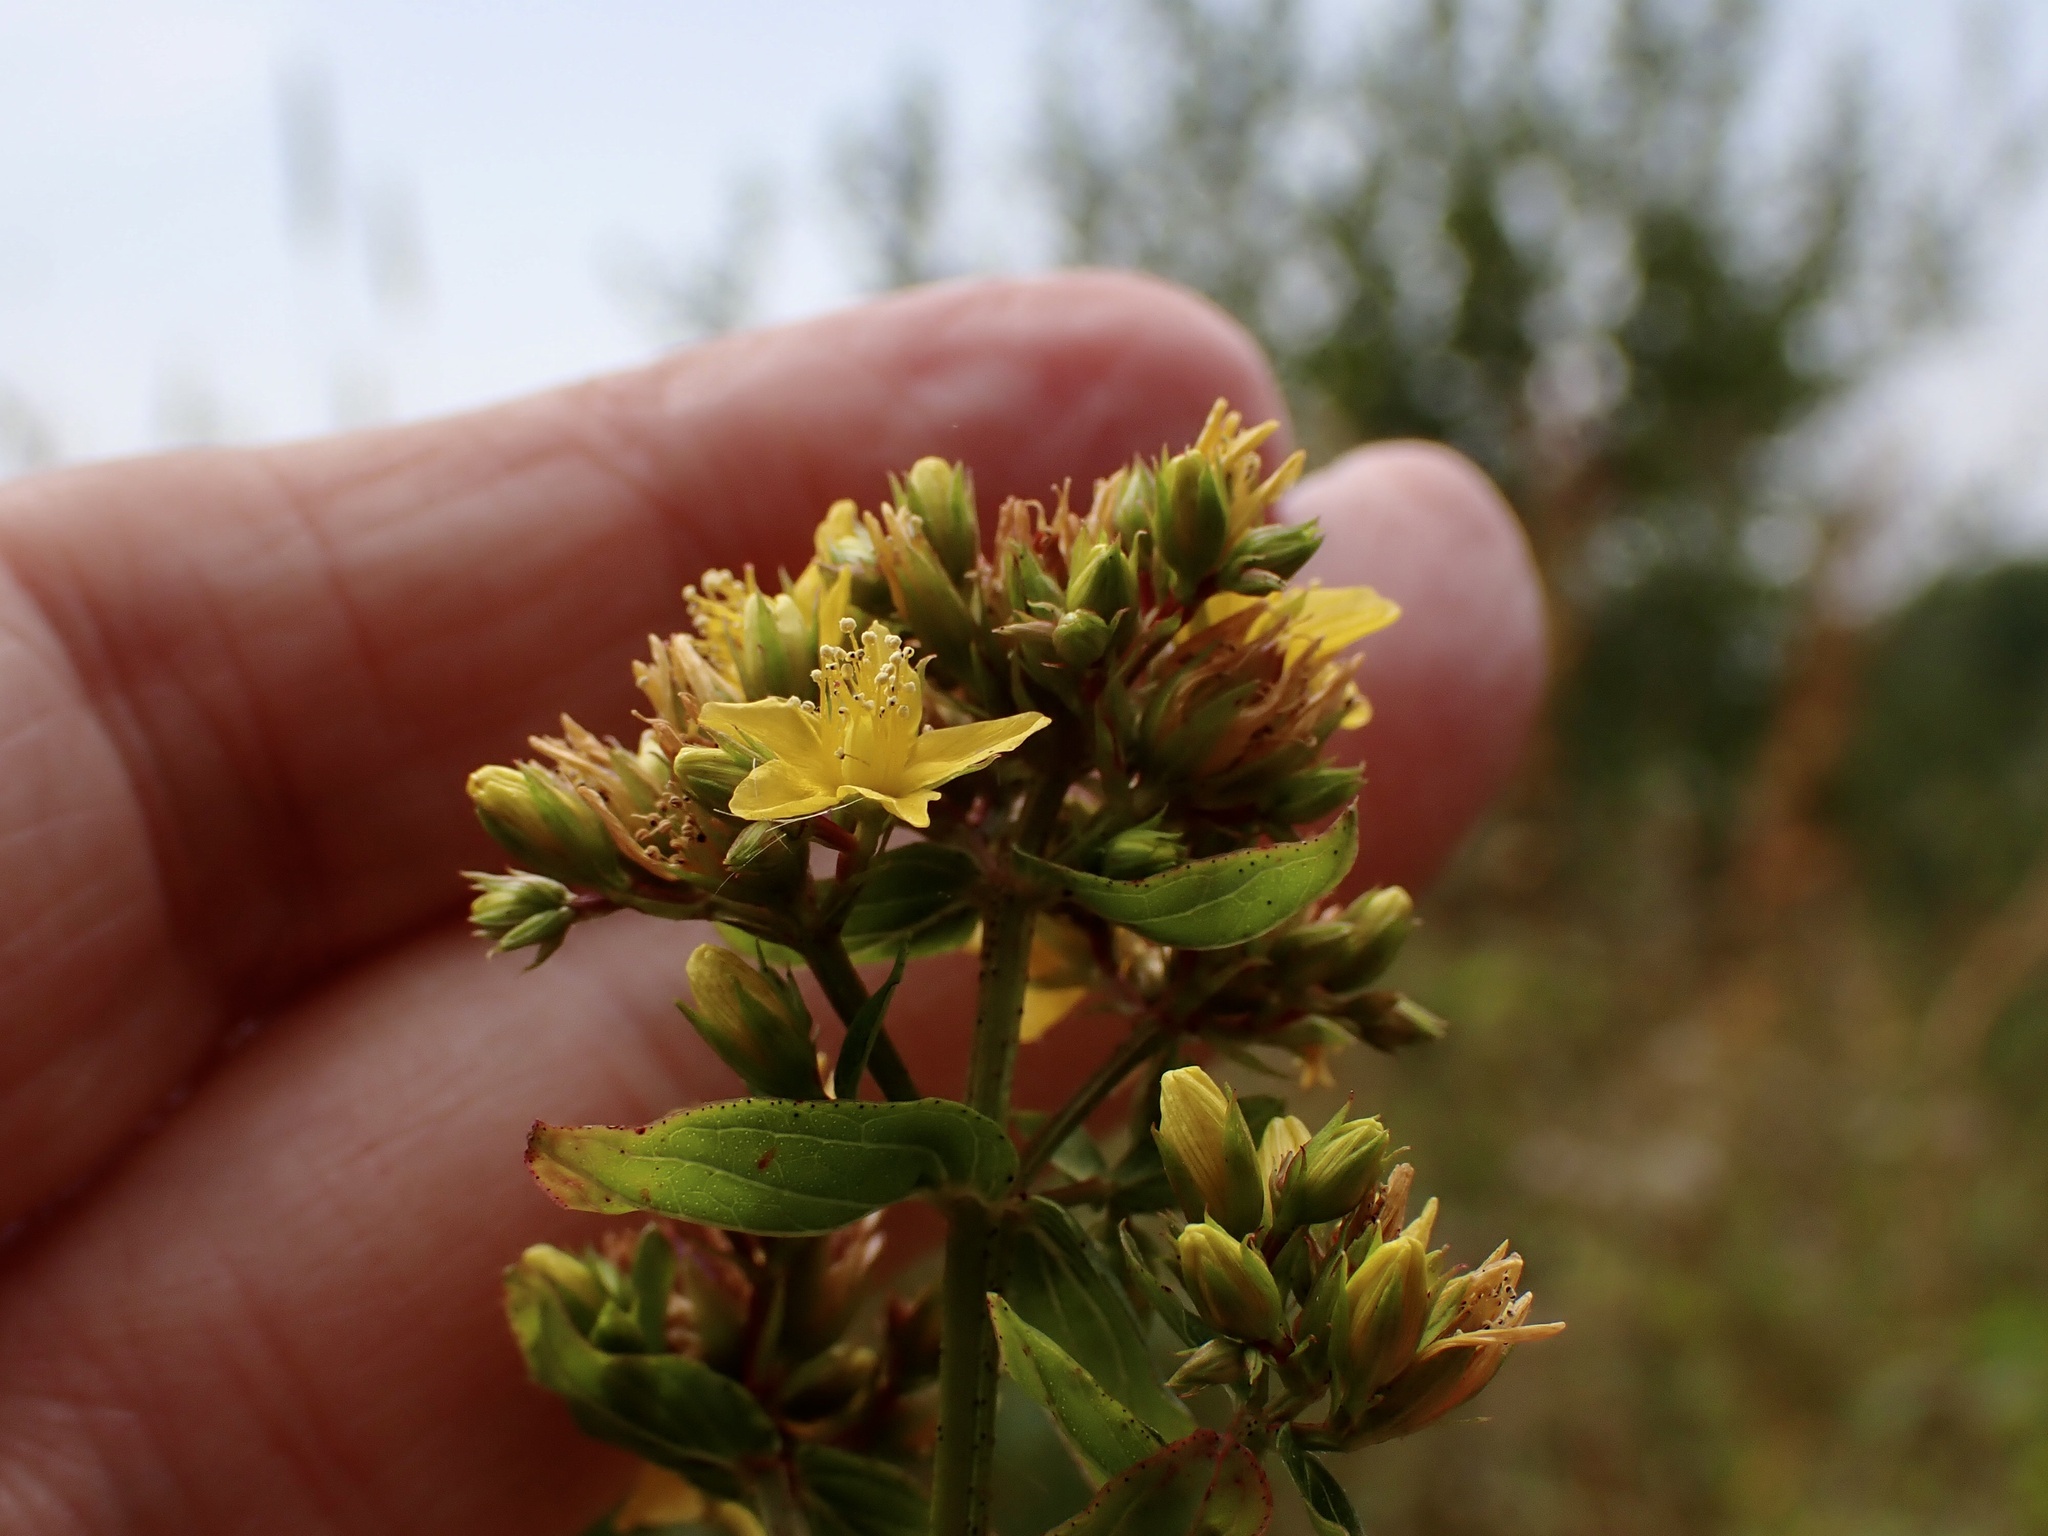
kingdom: Plantae
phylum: Tracheophyta
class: Magnoliopsida
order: Malpighiales
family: Hypericaceae
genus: Hypericum
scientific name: Hypericum tetrapterum
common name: Square-stalked st. john's-wort
